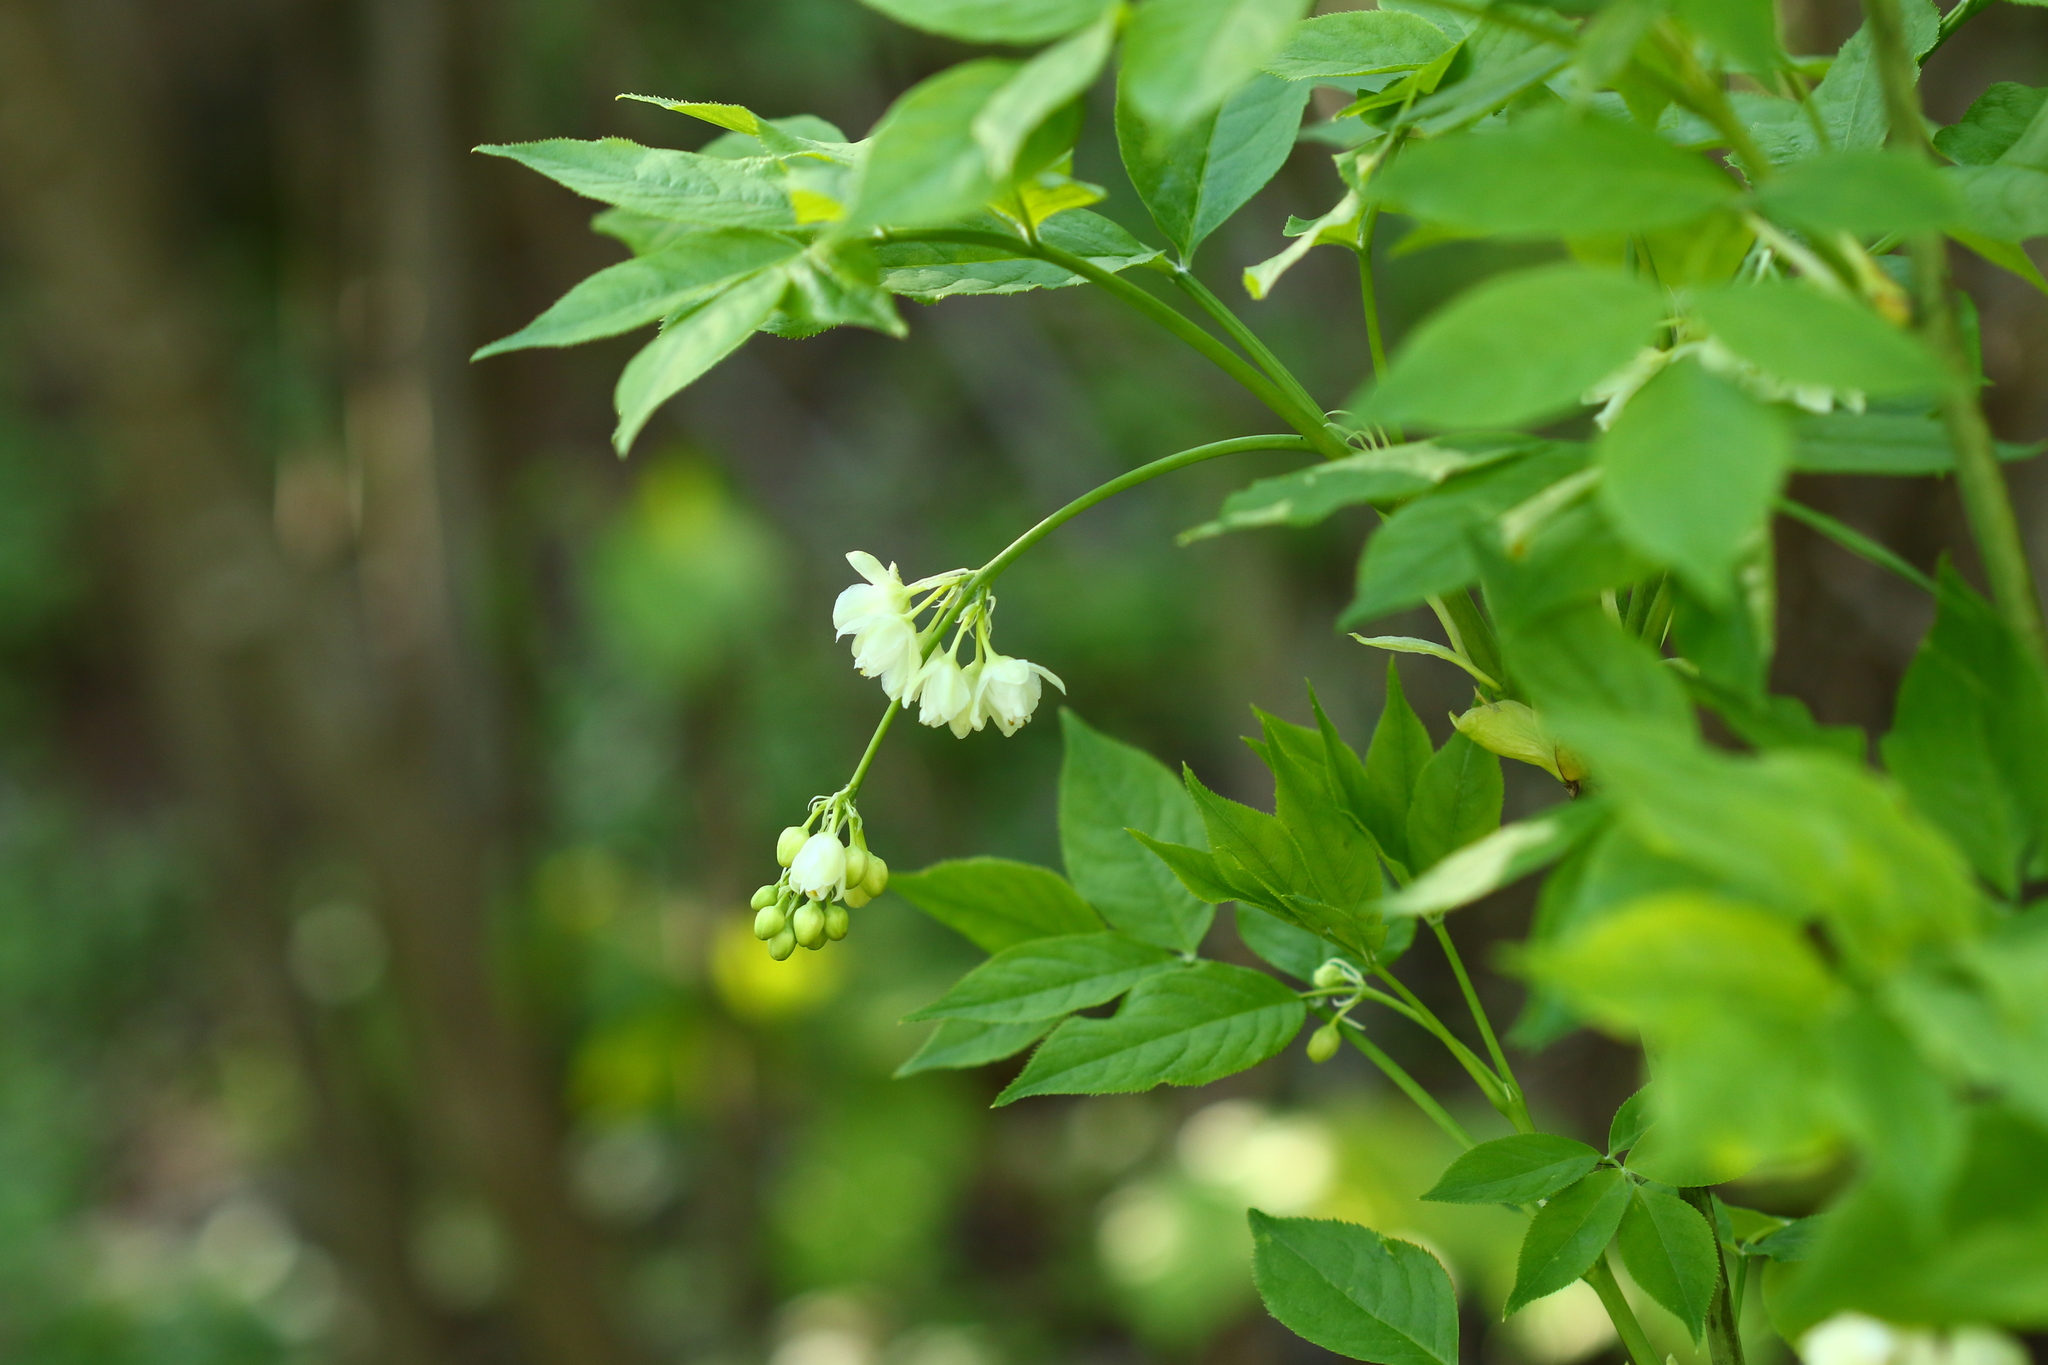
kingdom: Plantae
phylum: Tracheophyta
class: Magnoliopsida
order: Crossosomatales
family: Staphyleaceae
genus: Staphylea
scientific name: Staphylea pinnata
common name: Bladdernut
